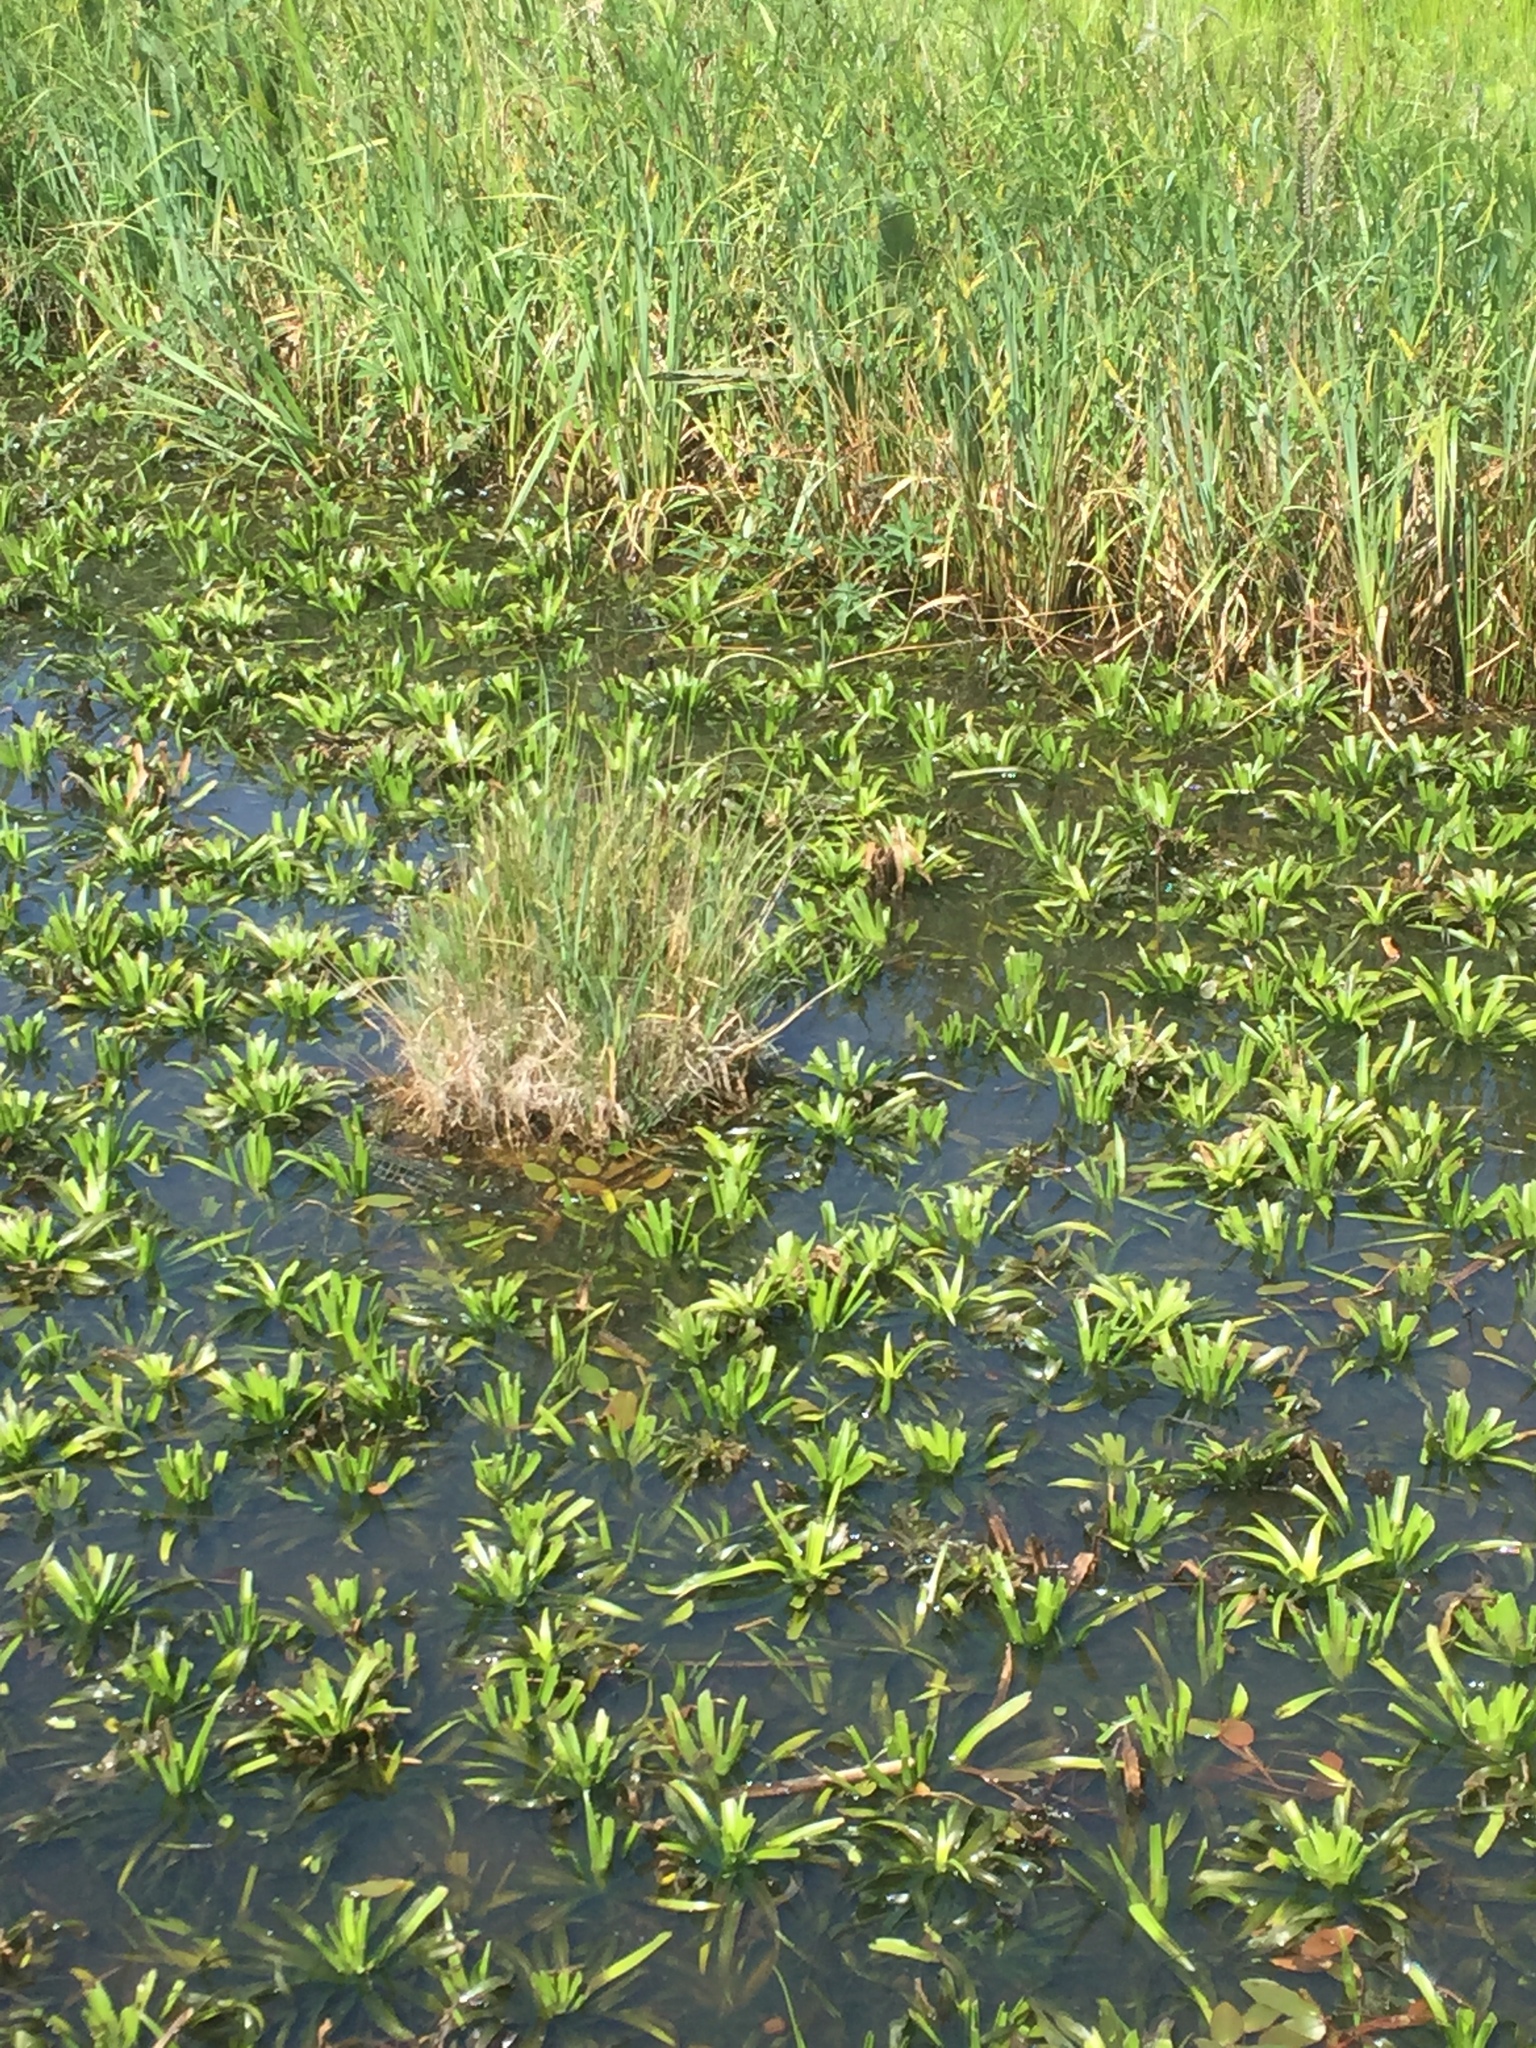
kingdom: Plantae
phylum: Tracheophyta
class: Liliopsida
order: Alismatales
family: Hydrocharitaceae
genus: Stratiotes
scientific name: Stratiotes aloides
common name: Water-soldier
